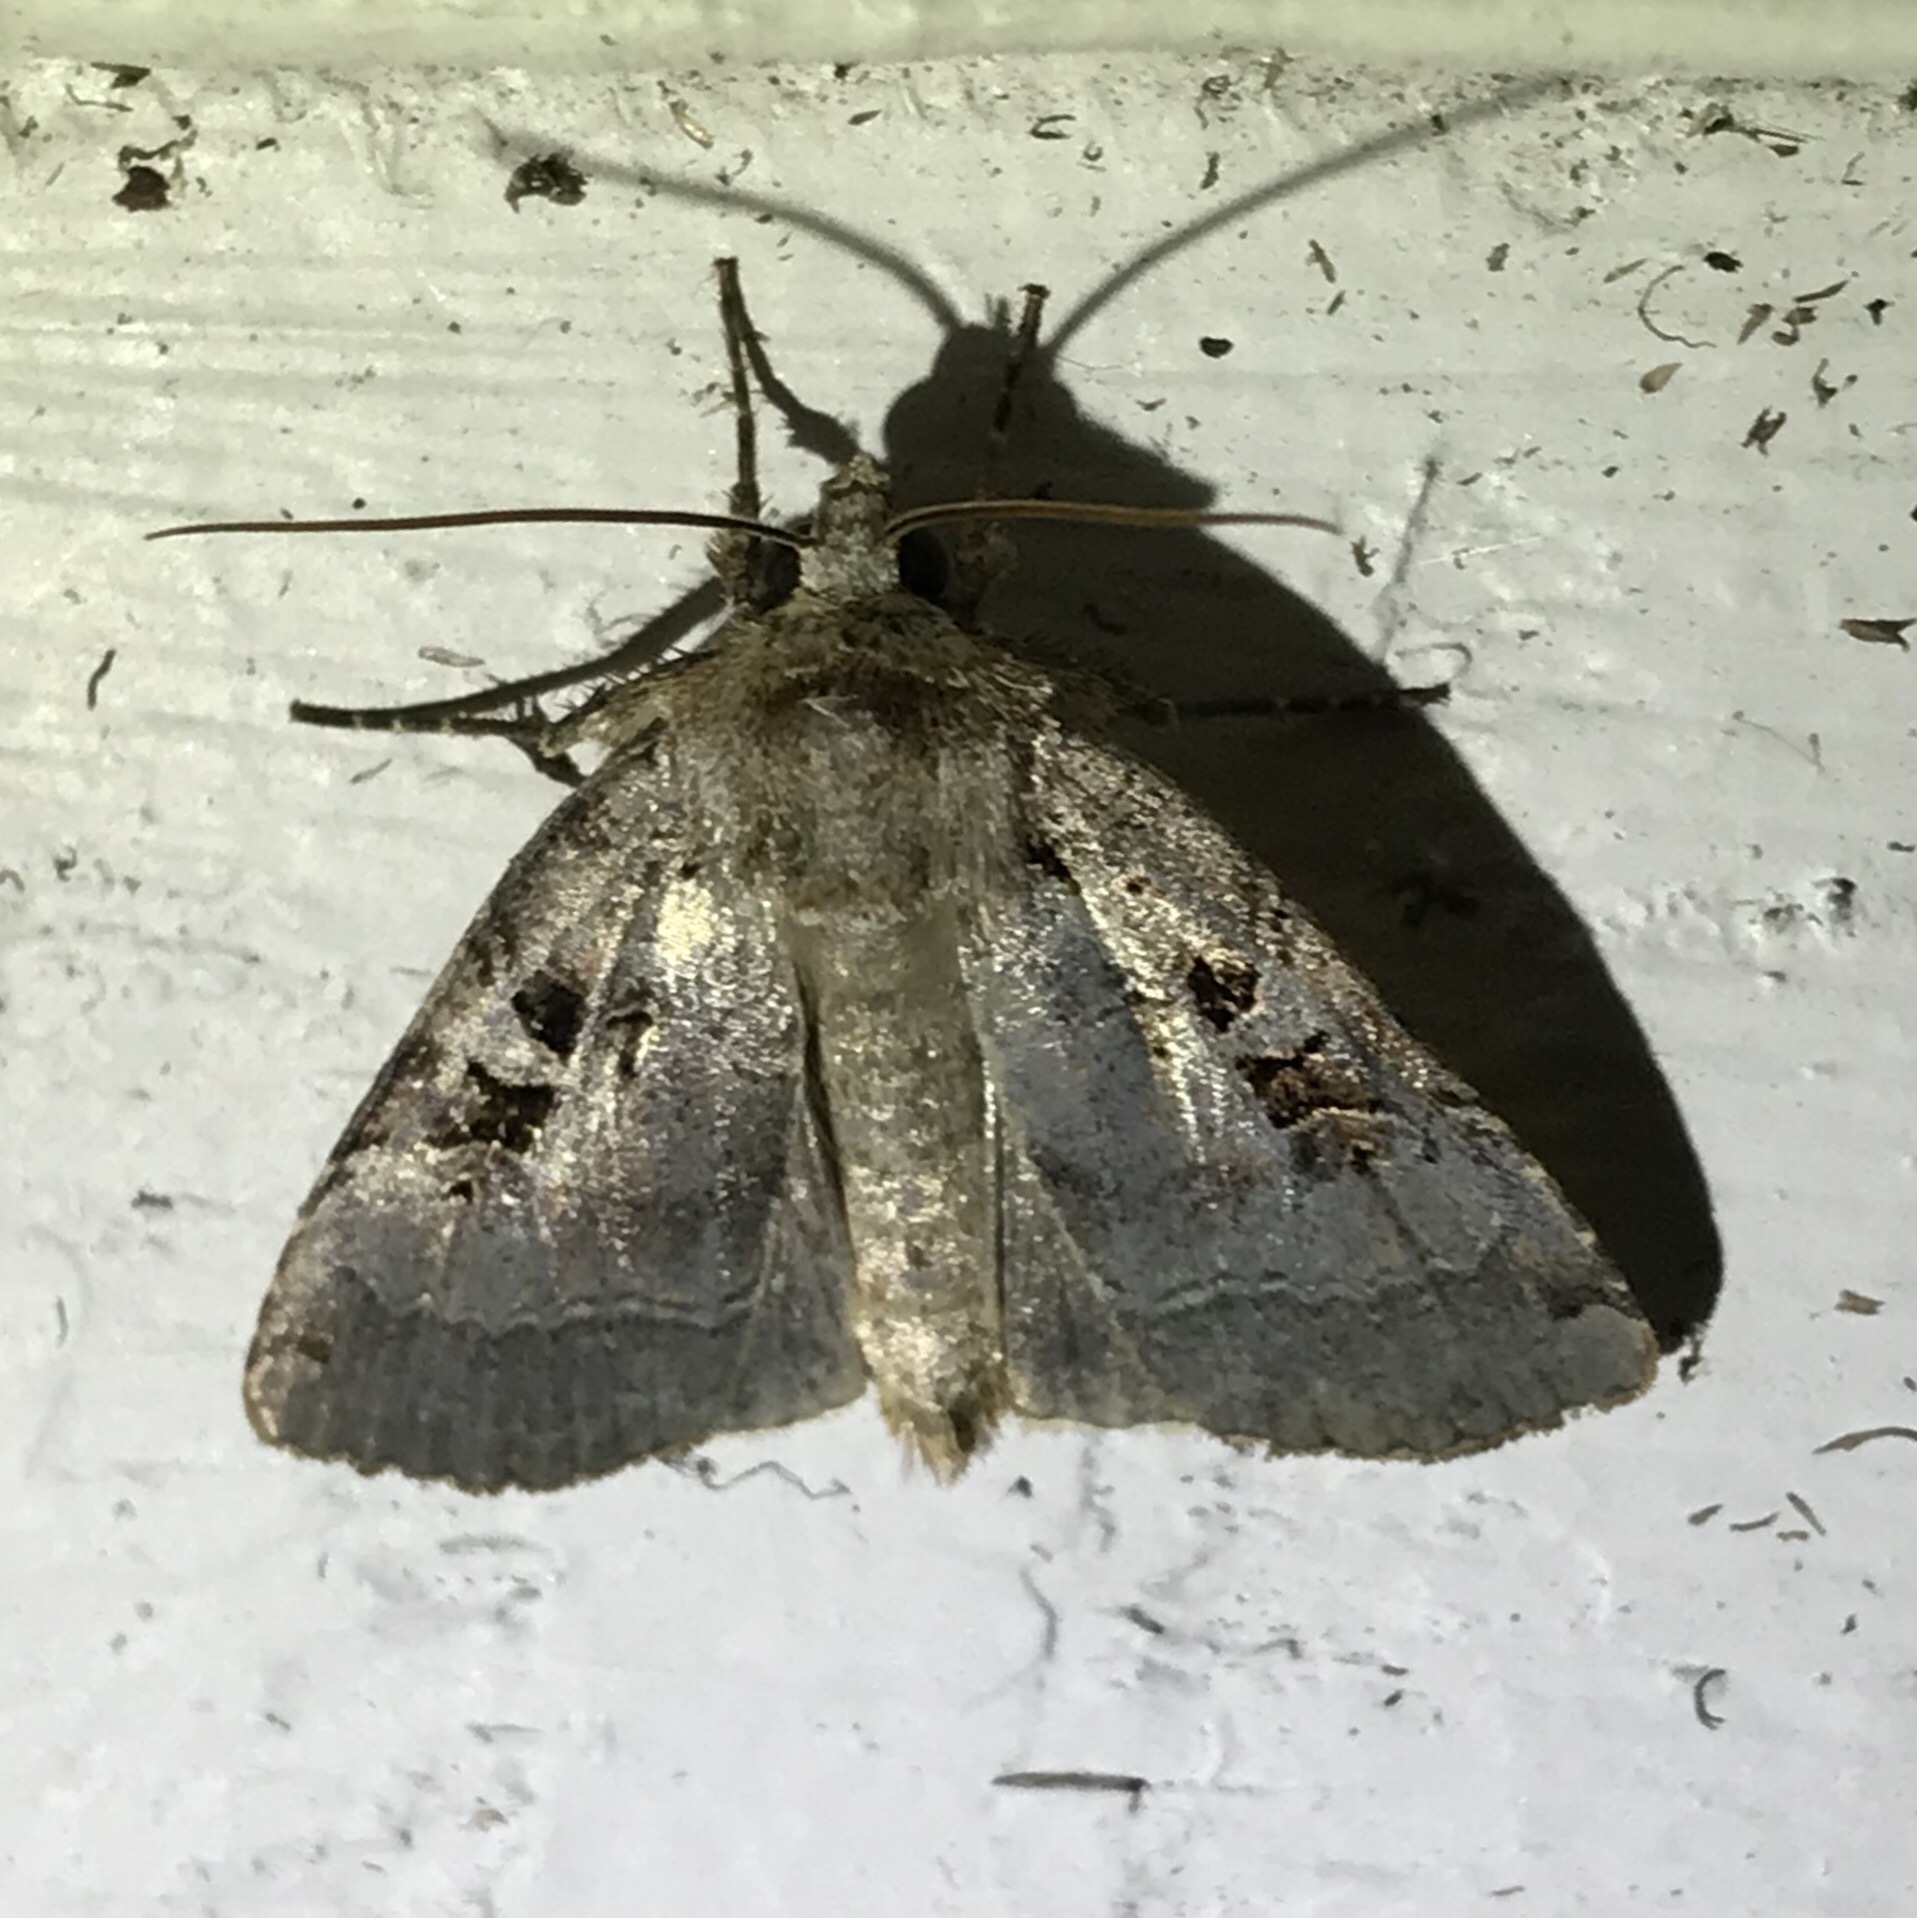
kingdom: Animalia
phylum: Arthropoda
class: Insecta
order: Lepidoptera
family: Noctuidae
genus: Xestia
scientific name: Xestia normaniana
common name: Norman's dart moth
